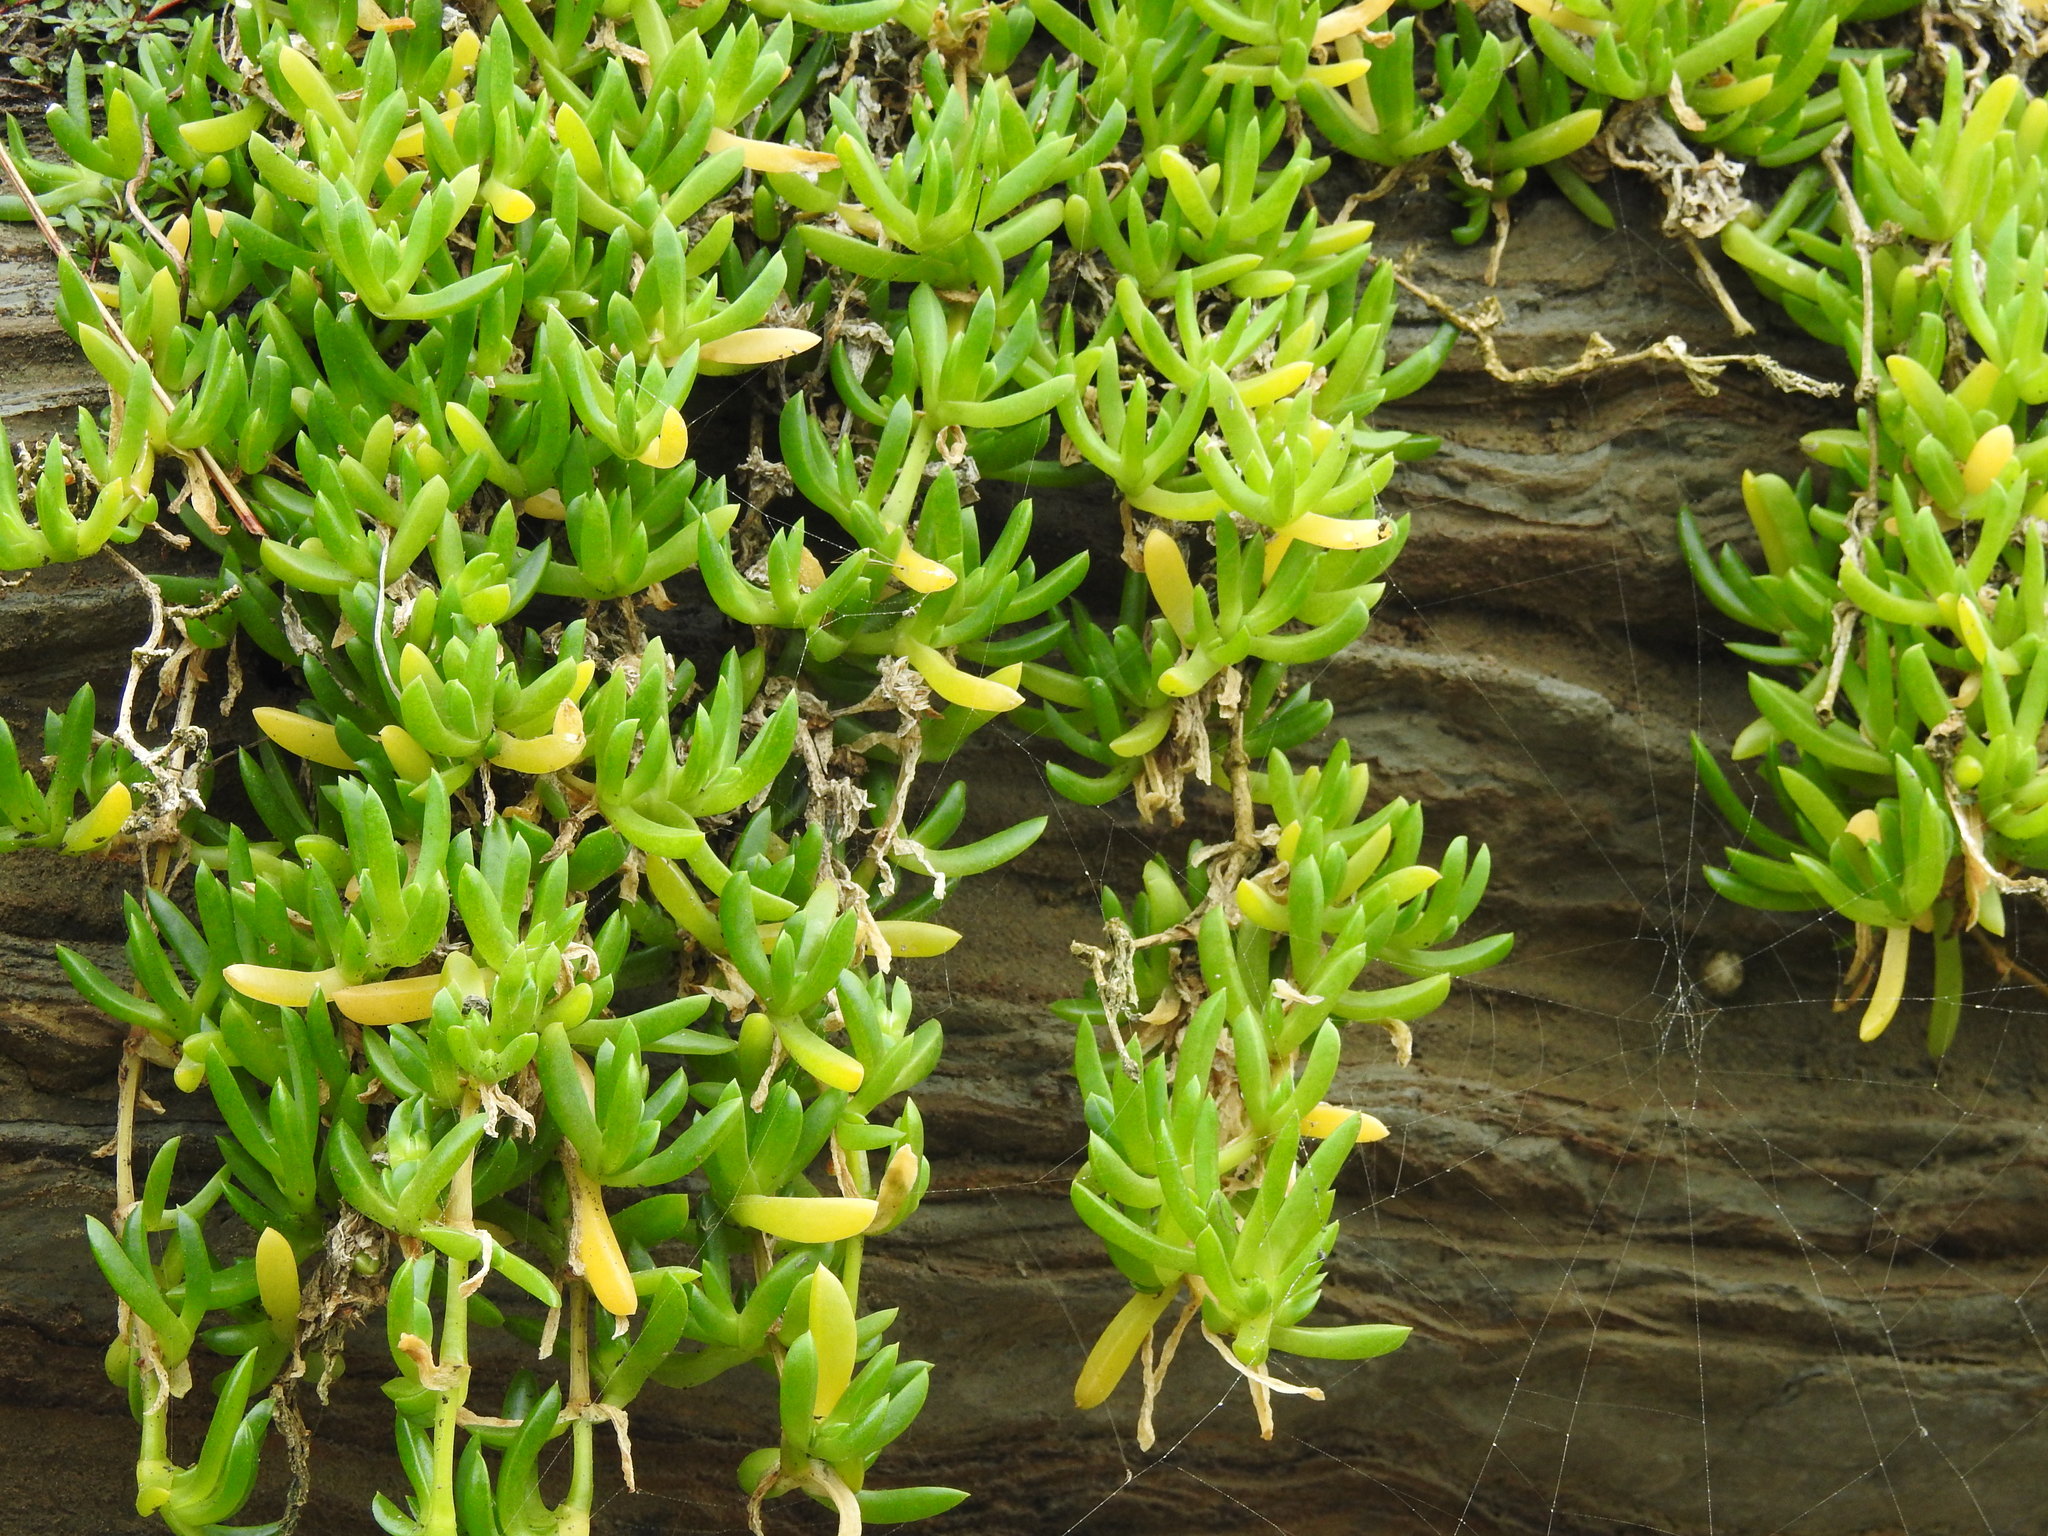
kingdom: Plantae
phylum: Tracheophyta
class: Magnoliopsida
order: Caryophyllales
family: Aizoaceae
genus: Disphyma
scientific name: Disphyma australe
